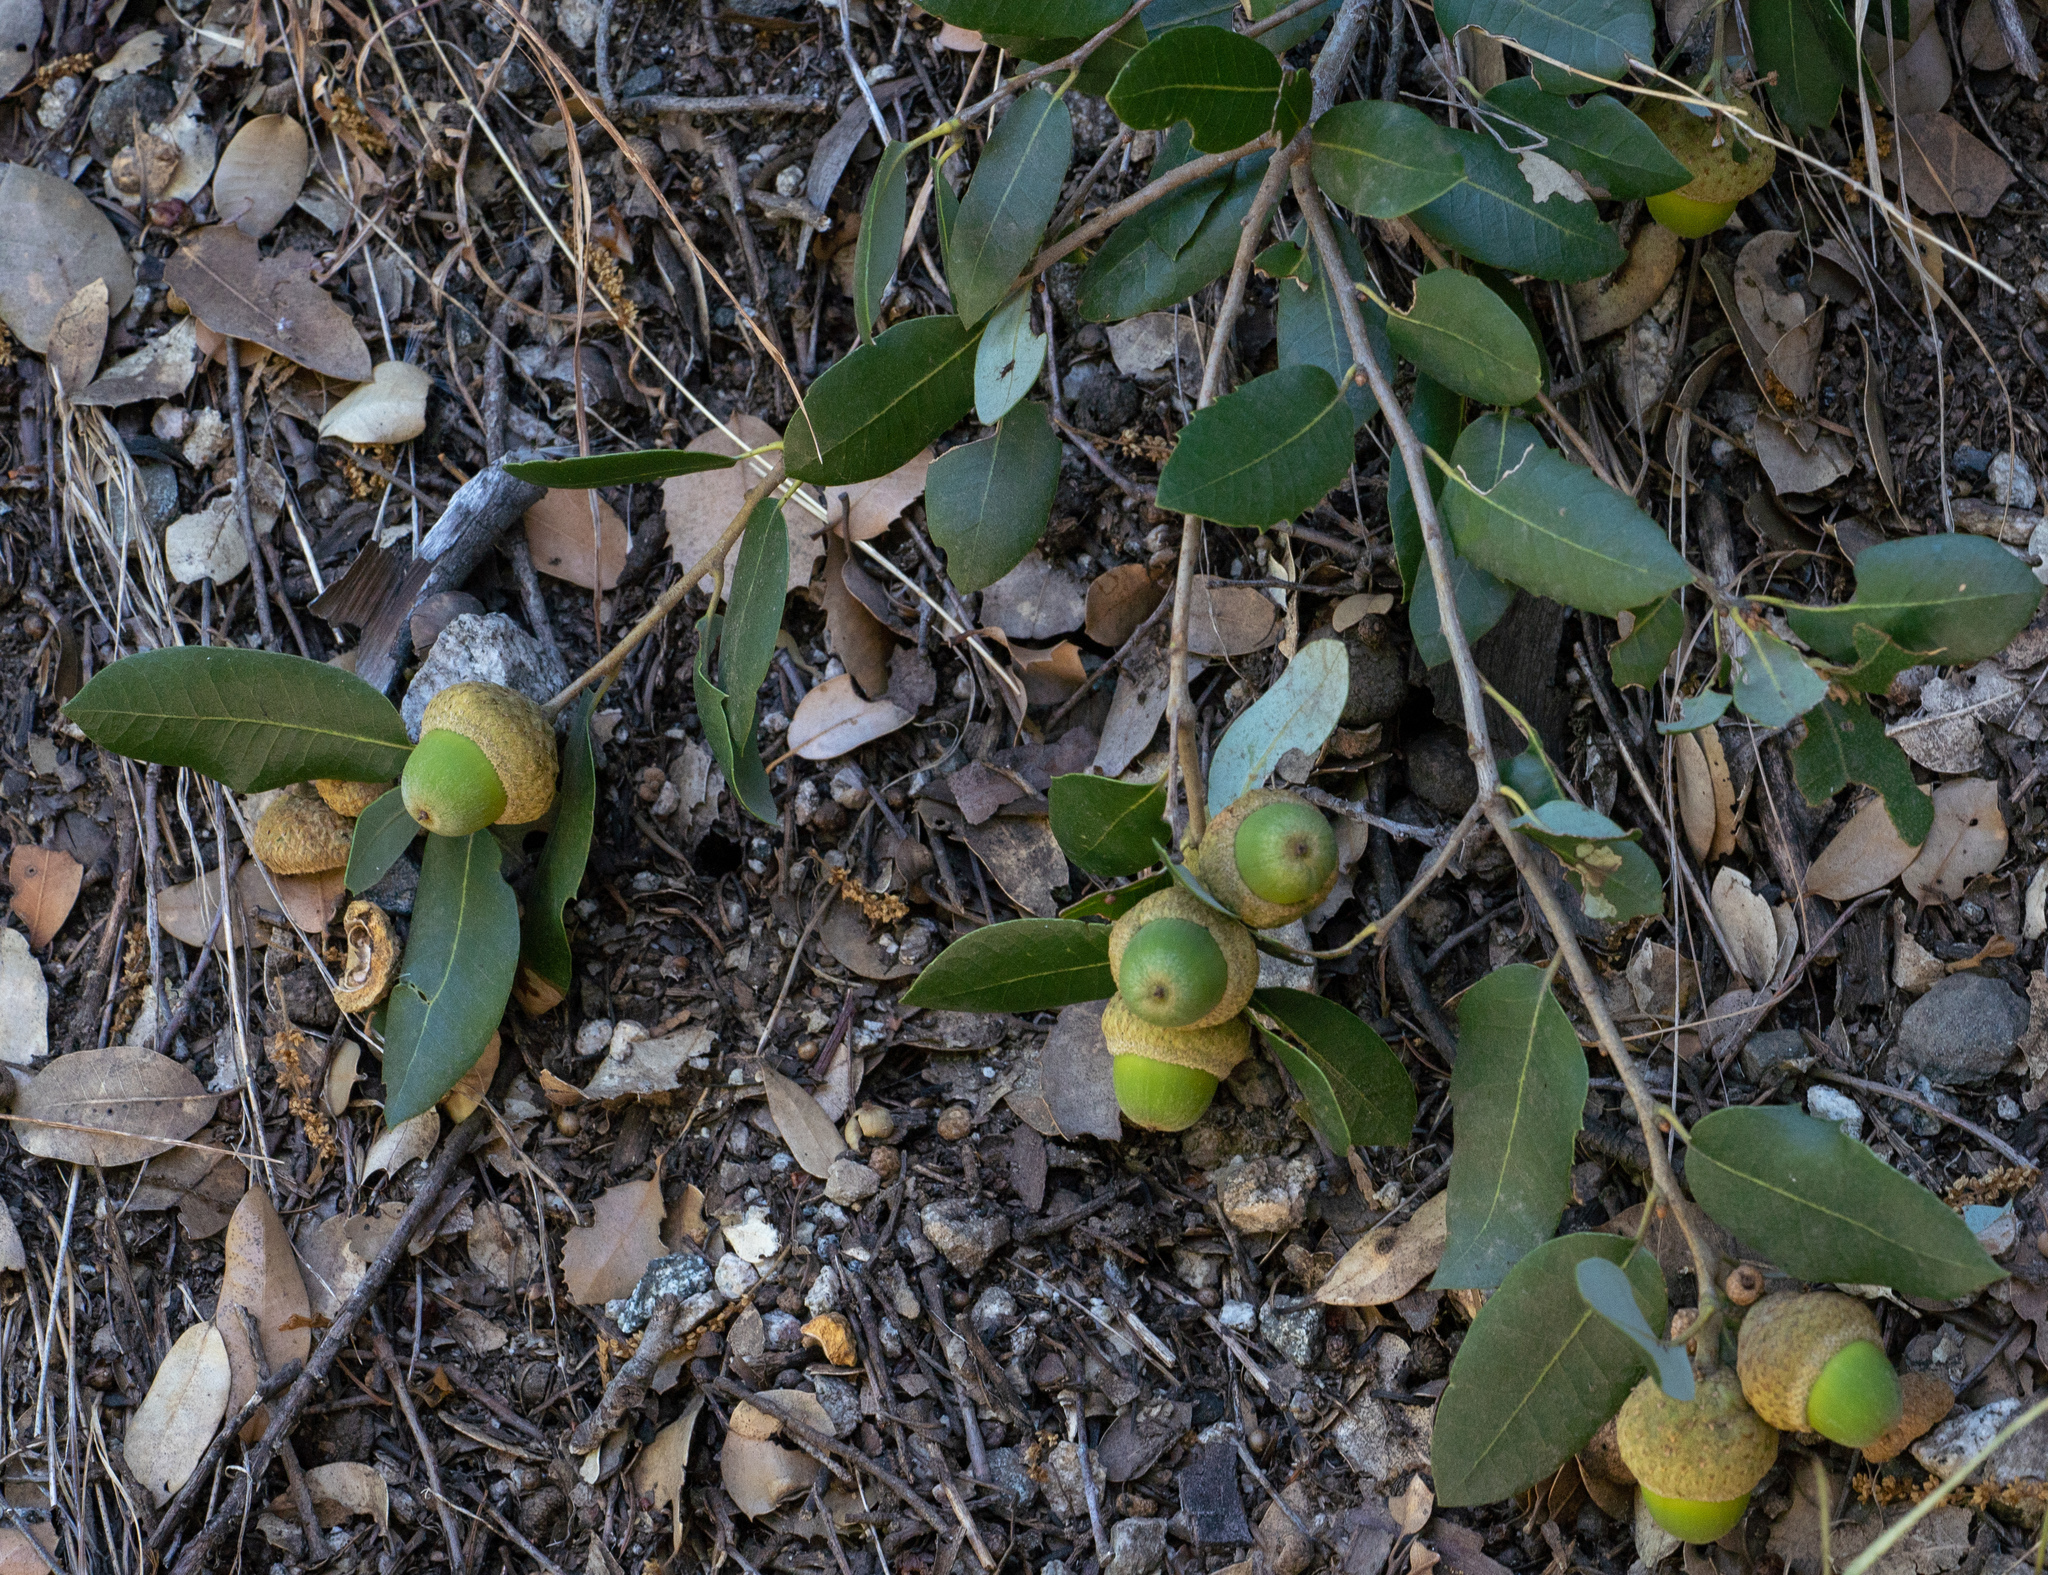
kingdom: Plantae
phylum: Tracheophyta
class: Magnoliopsida
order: Fagales
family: Fagaceae
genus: Quercus
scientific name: Quercus chrysolepis
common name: Canyon live oak
